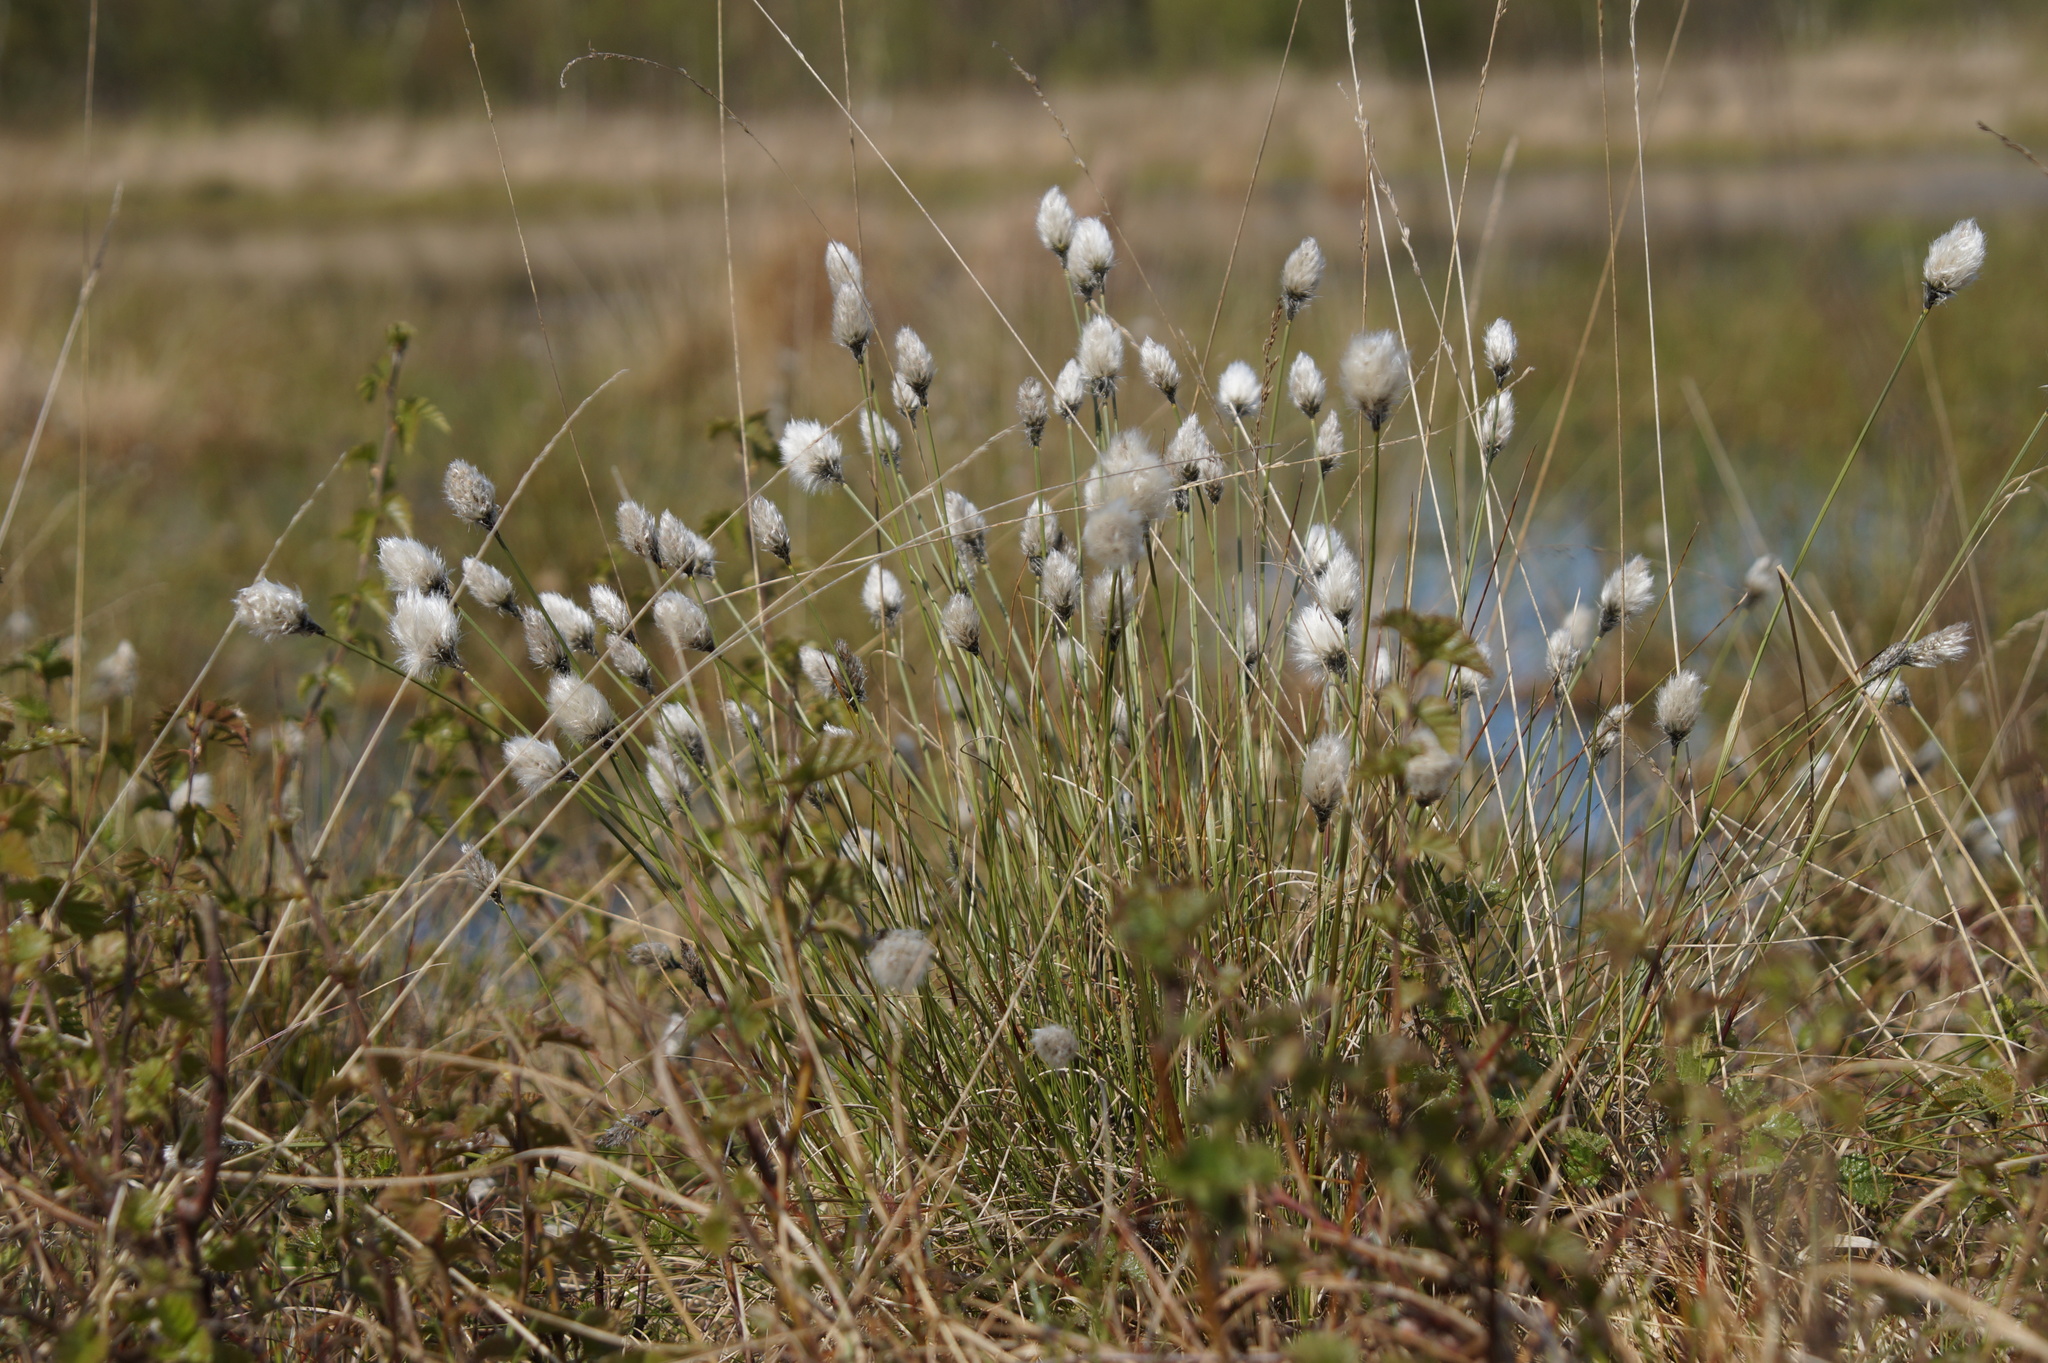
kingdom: Plantae
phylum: Tracheophyta
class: Liliopsida
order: Poales
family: Cyperaceae
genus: Eriophorum
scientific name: Eriophorum vaginatum
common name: Hare's-tail cottongrass
